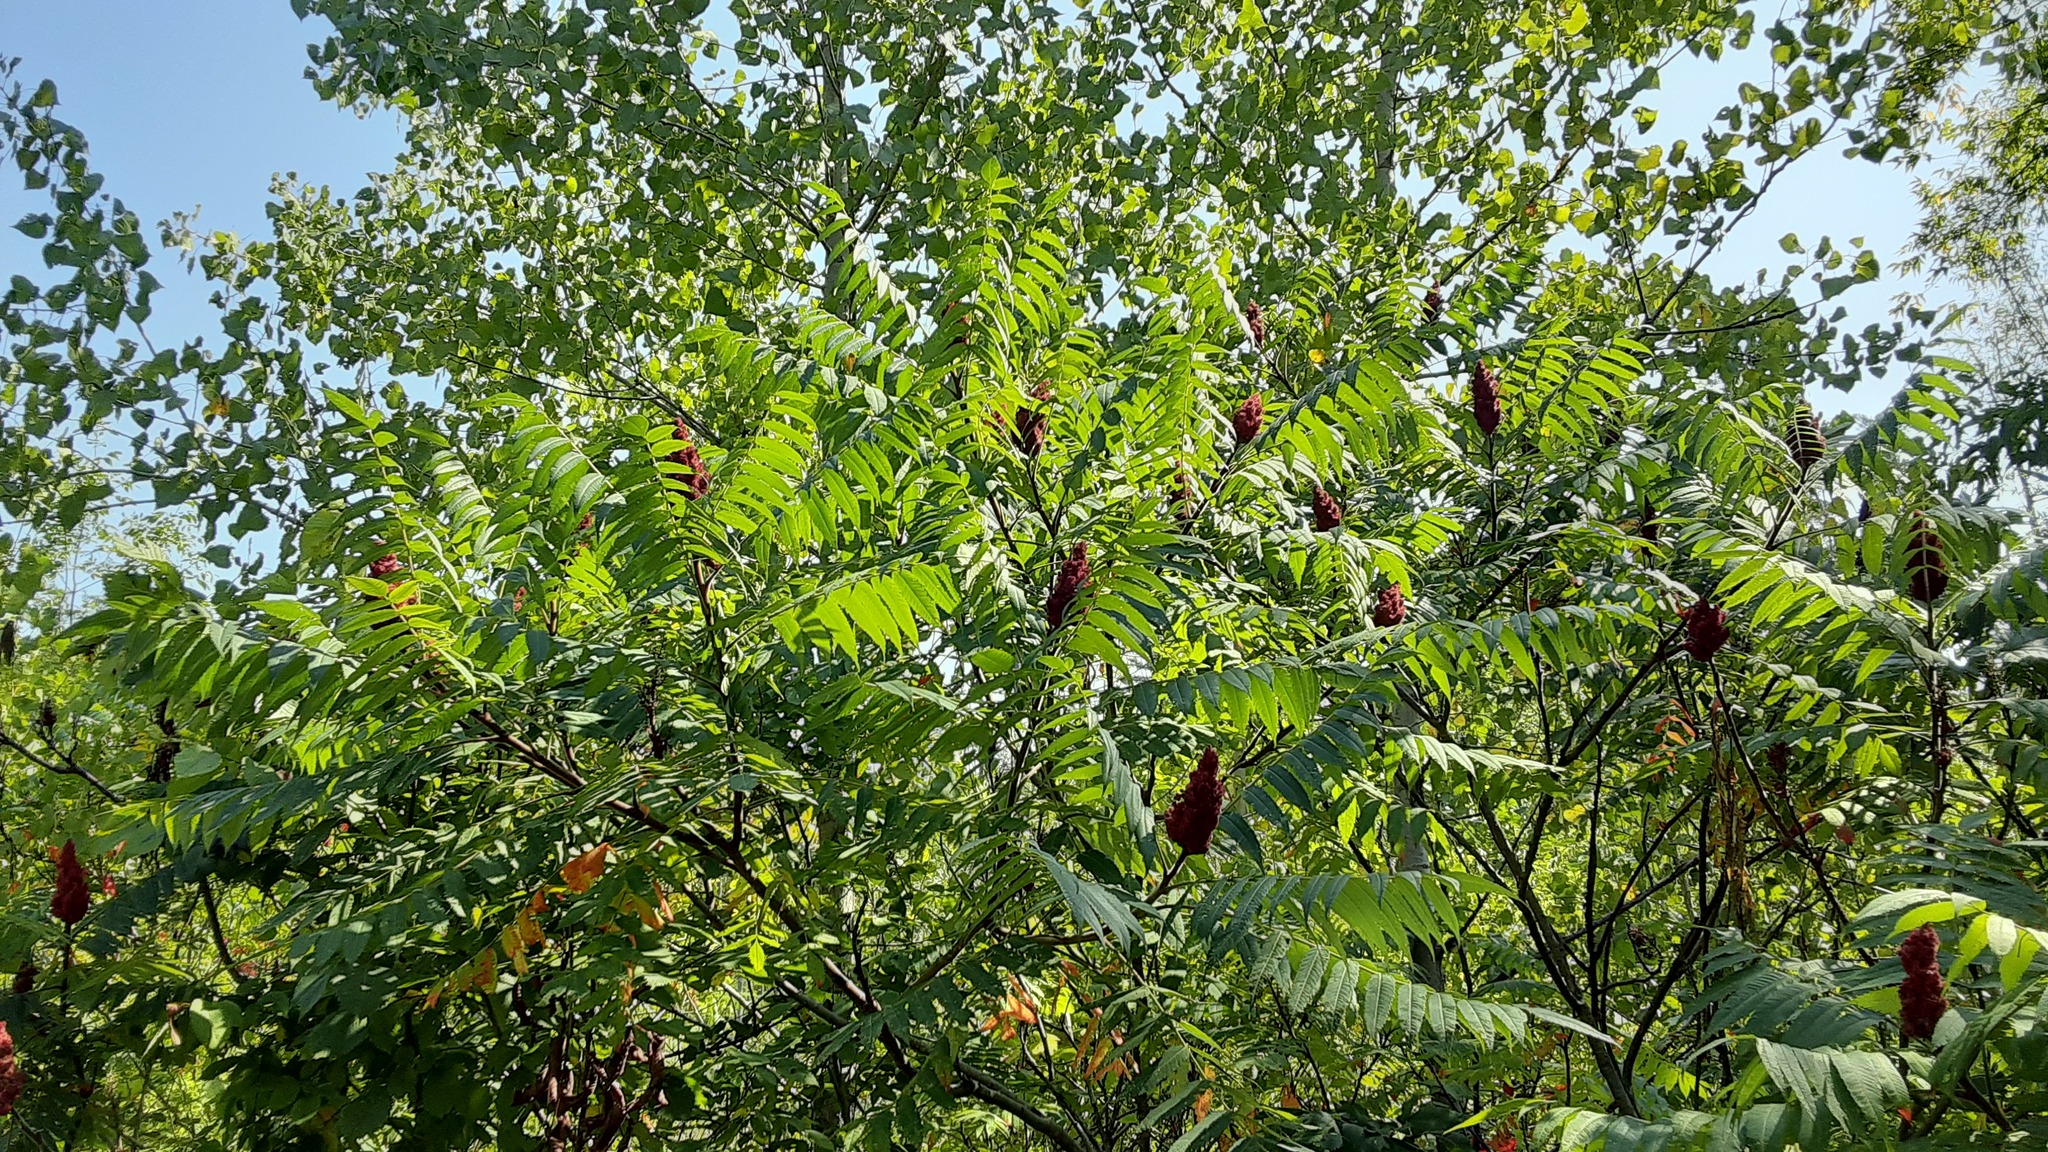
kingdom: Plantae
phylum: Tracheophyta
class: Magnoliopsida
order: Sapindales
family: Anacardiaceae
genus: Rhus
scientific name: Rhus typhina
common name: Staghorn sumac
